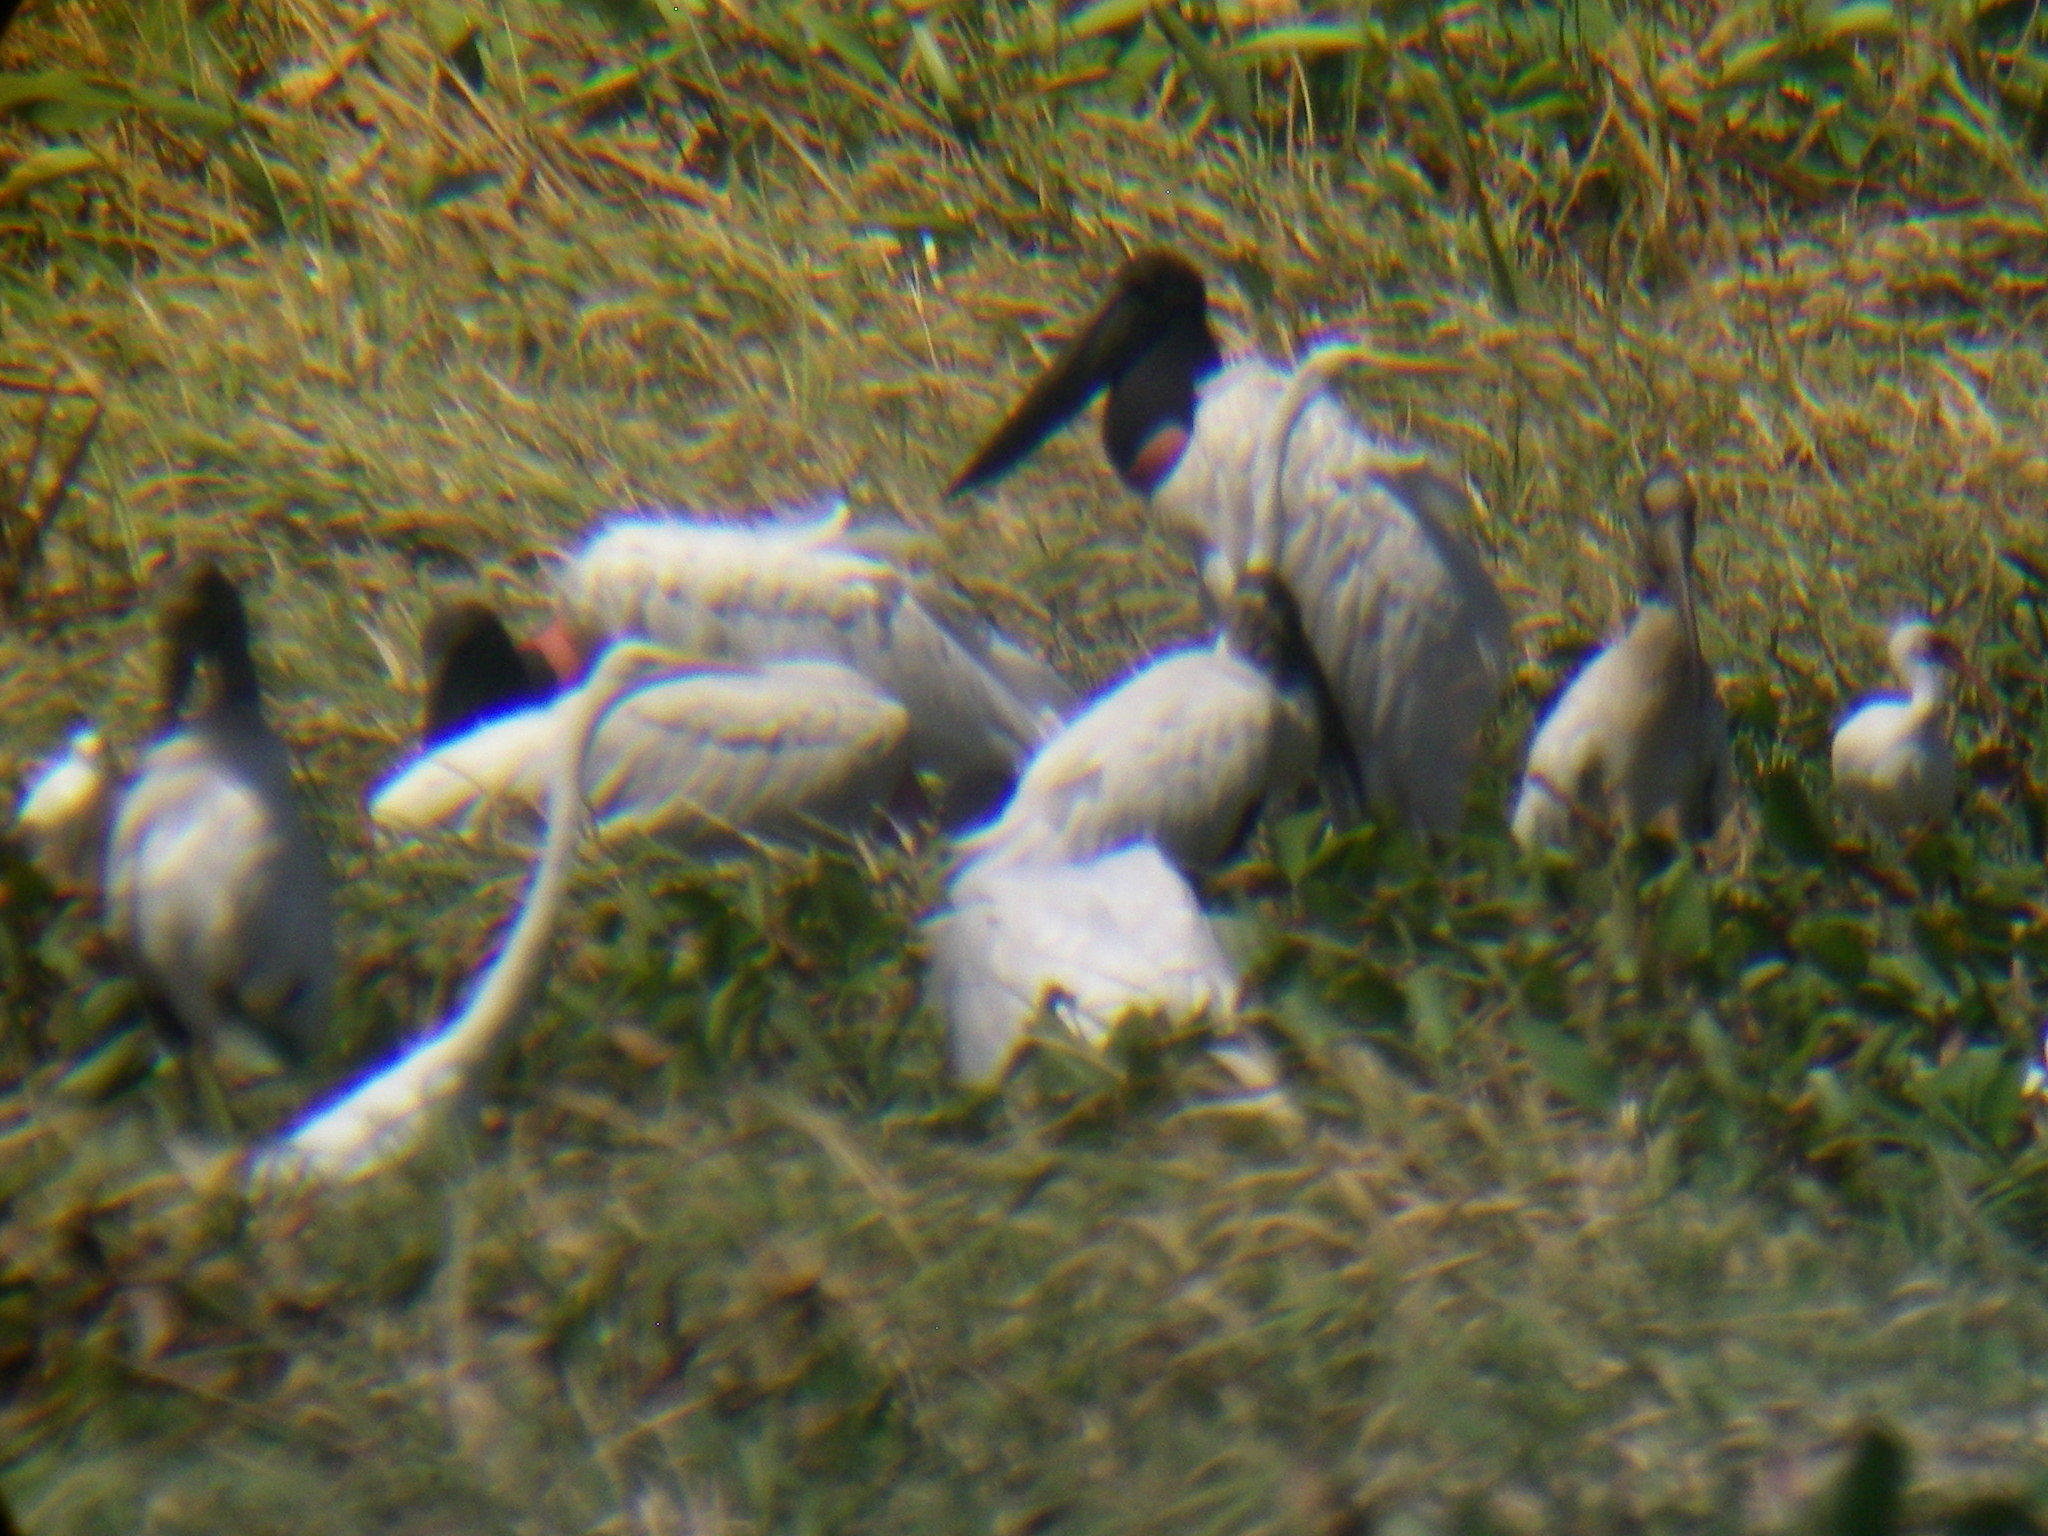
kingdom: Animalia
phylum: Chordata
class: Aves
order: Ciconiiformes
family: Ciconiidae
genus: Jabiru
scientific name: Jabiru mycteria
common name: Jabiru
